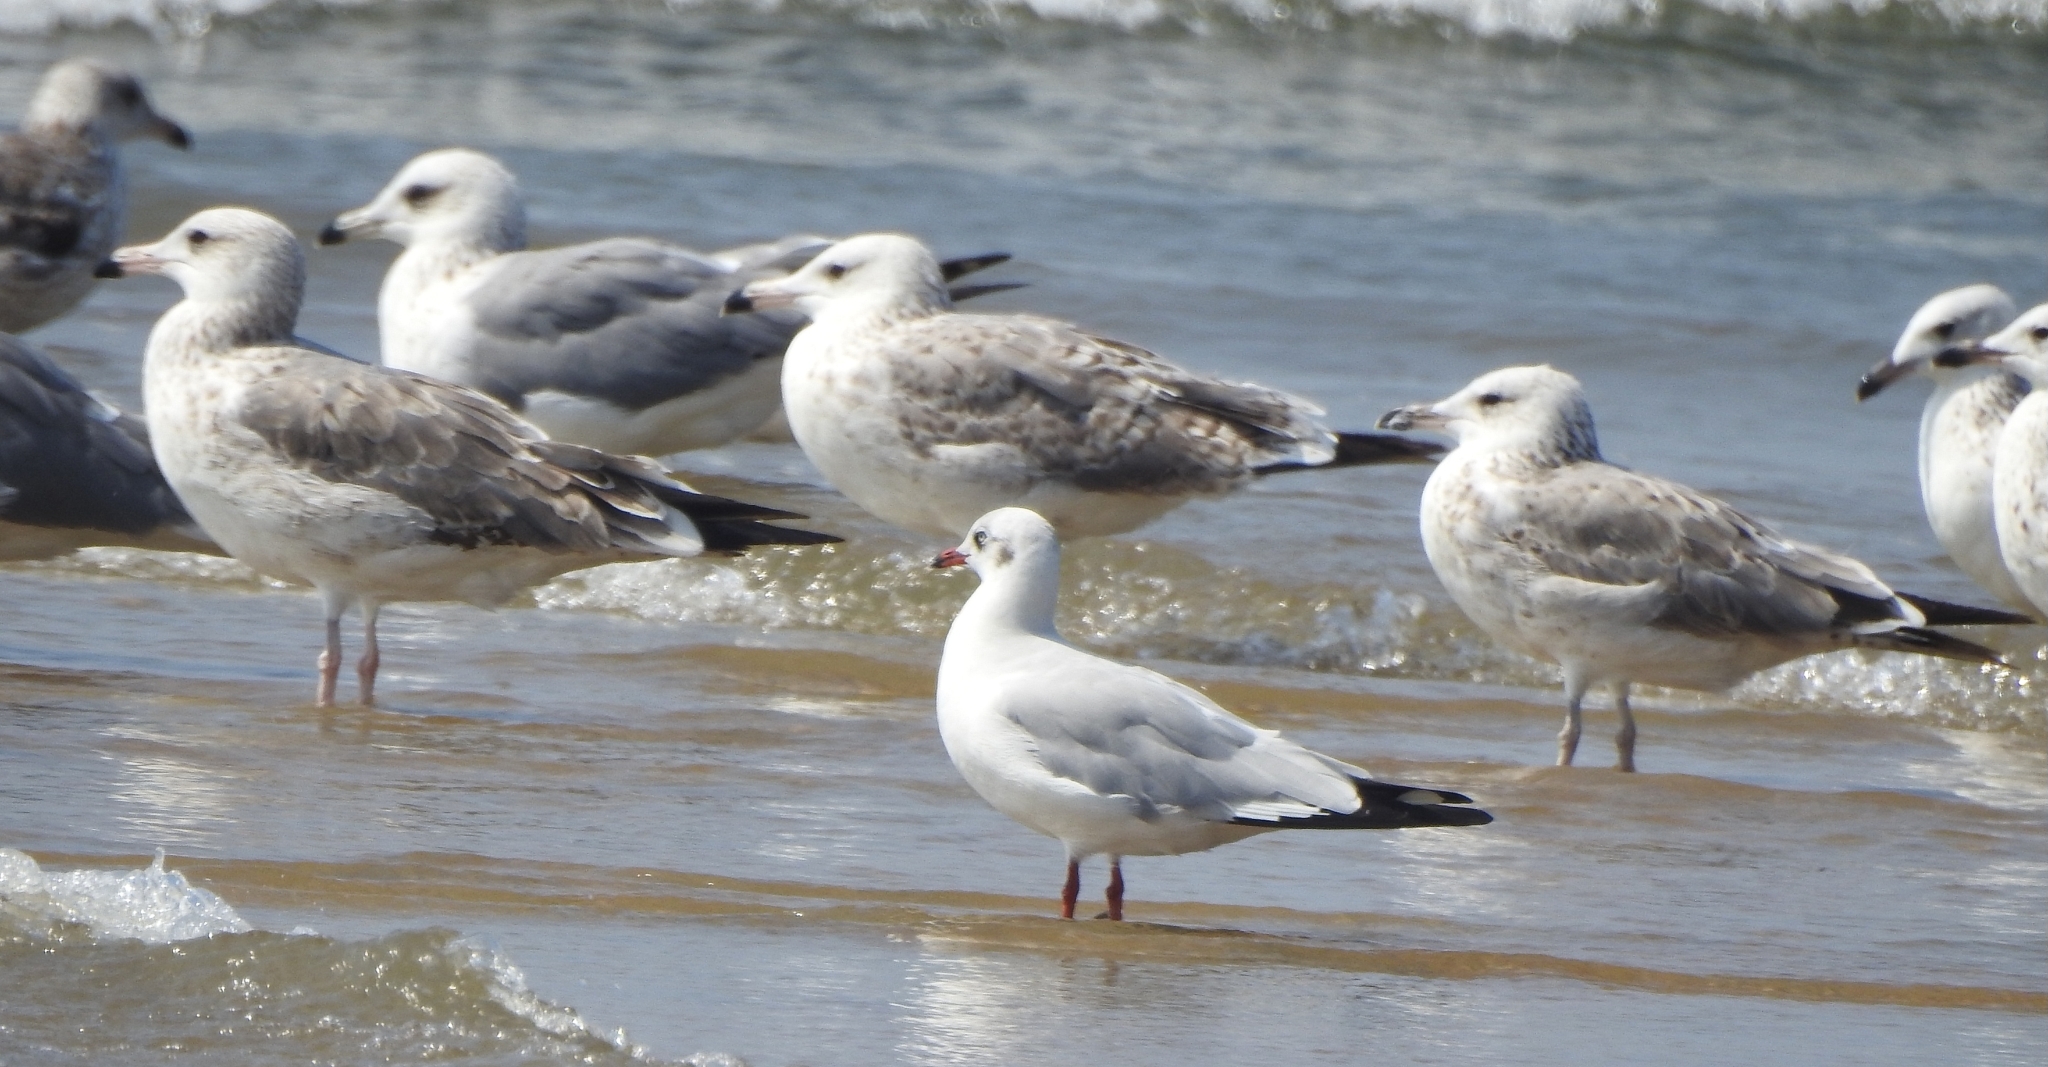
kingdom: Animalia
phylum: Chordata
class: Aves
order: Charadriiformes
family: Laridae
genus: Chroicocephalus
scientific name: Chroicocephalus brunnicephalus
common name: Brown-headed gull
